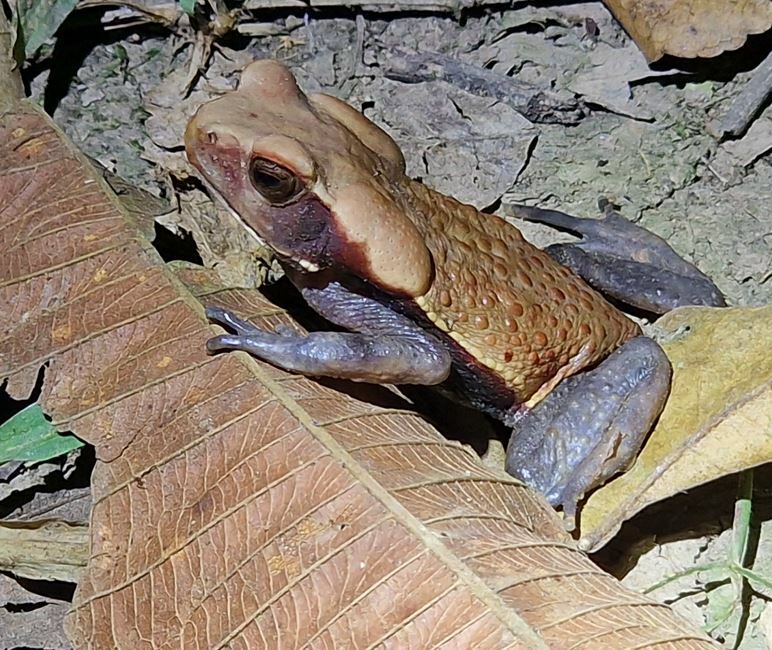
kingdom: Animalia
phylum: Chordata
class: Amphibia
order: Anura
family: Bufonidae
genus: Rhaebo
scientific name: Rhaebo guttatus
